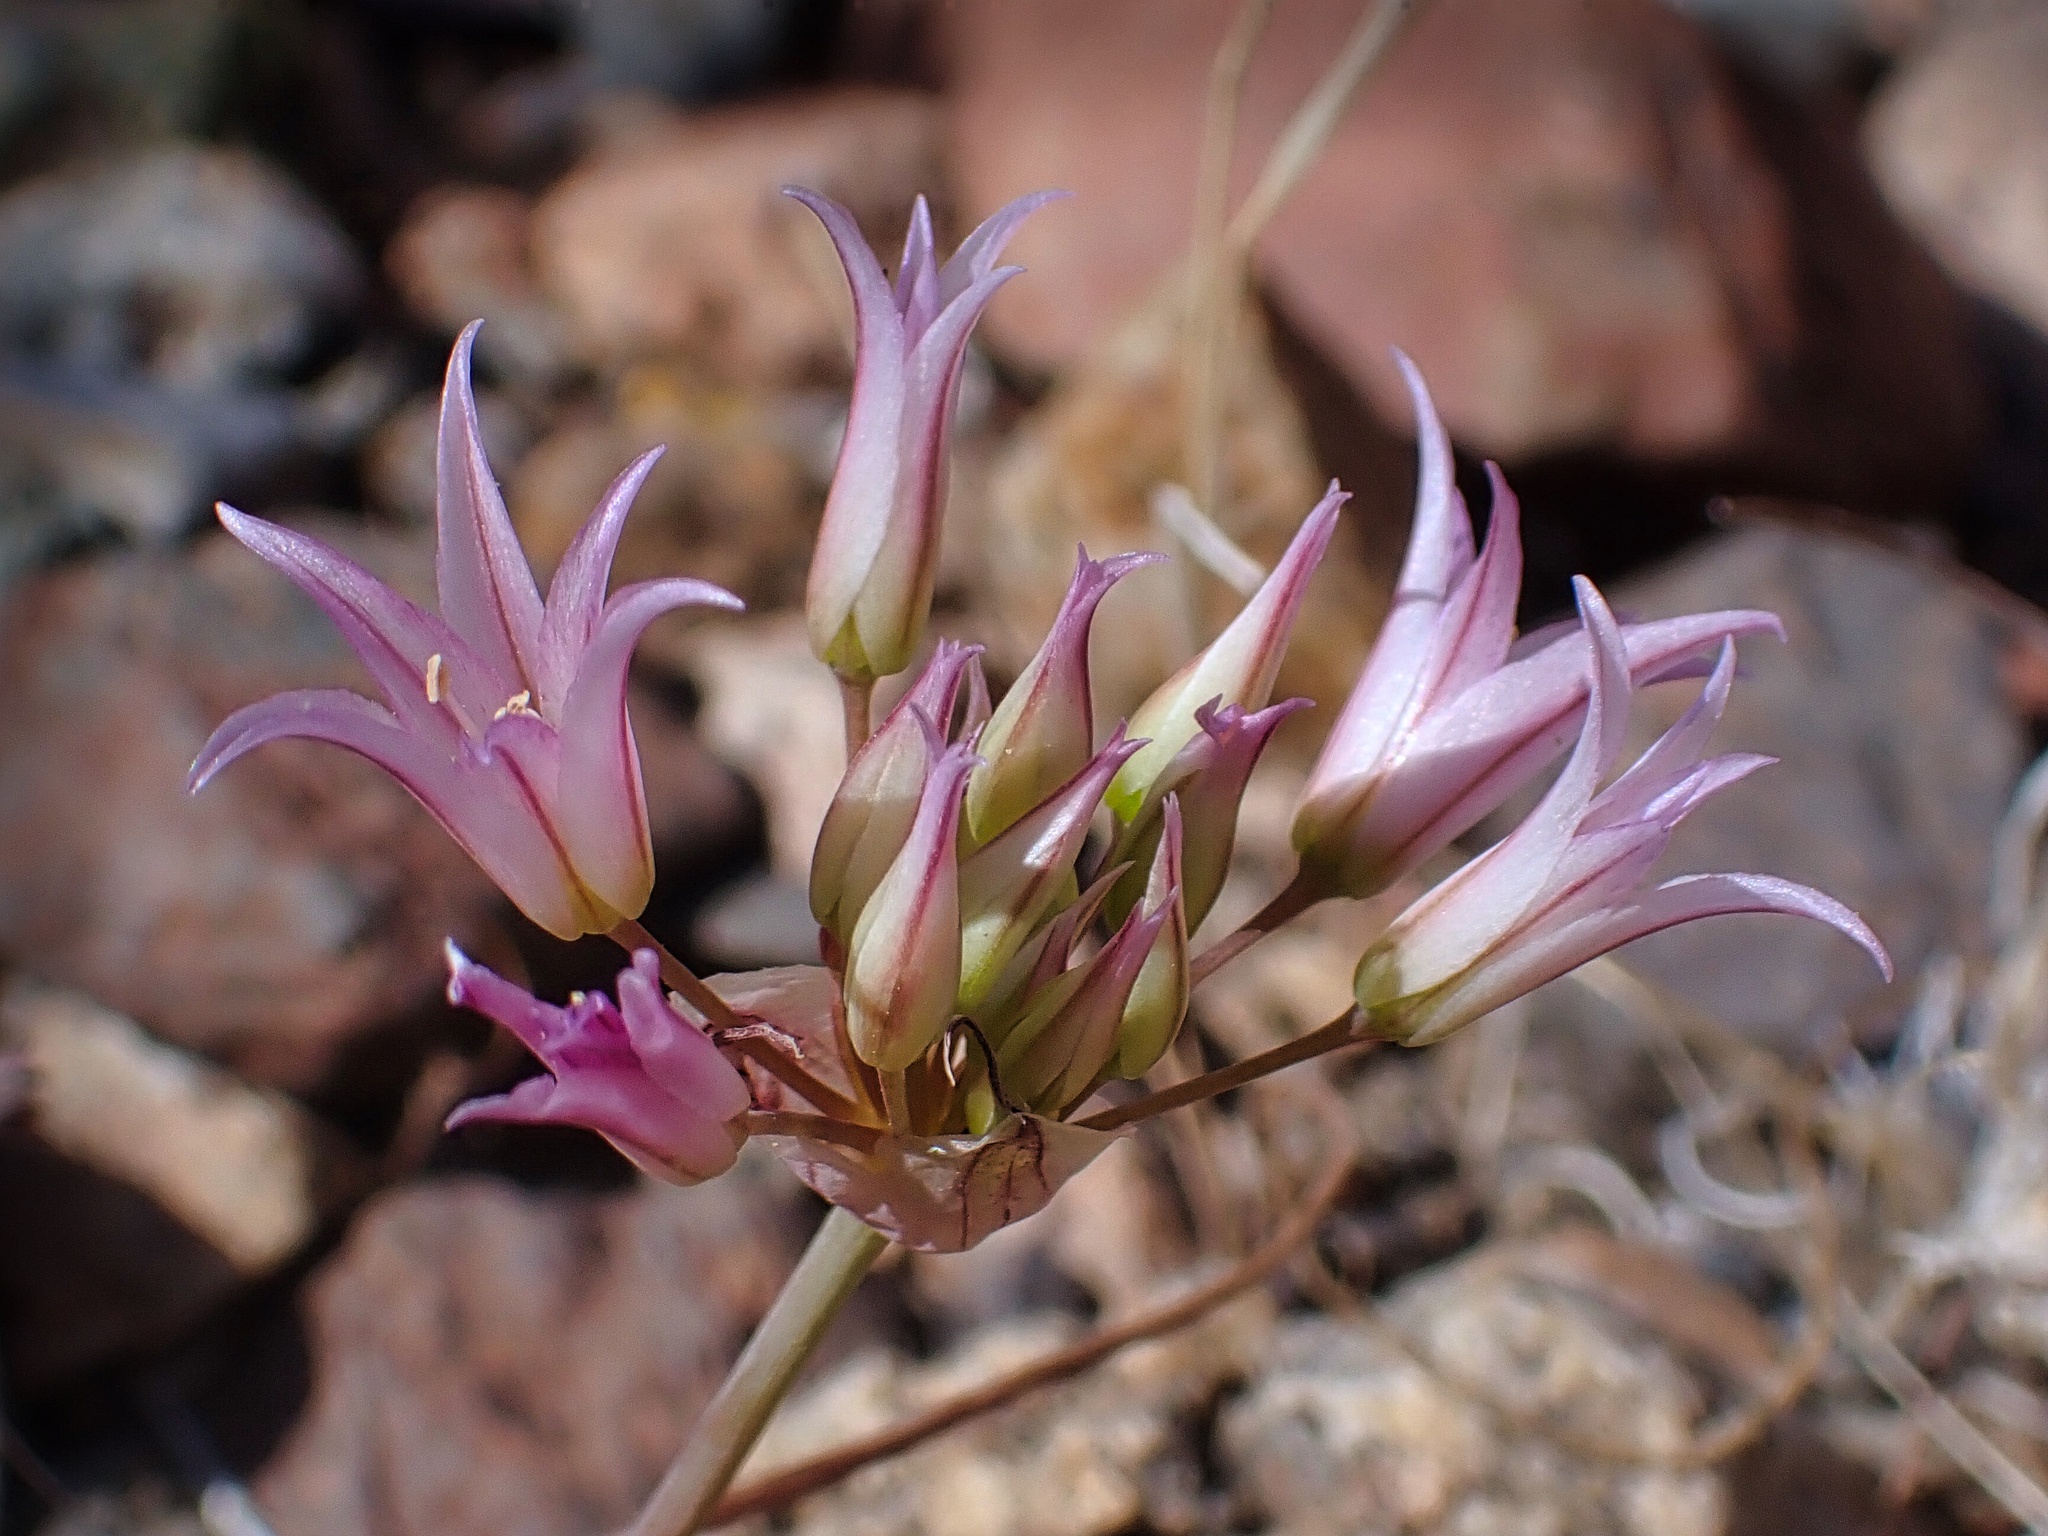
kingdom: Plantae
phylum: Tracheophyta
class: Liliopsida
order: Asparagales
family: Amaryllidaceae
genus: Allium
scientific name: Allium fimbriatum
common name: Fringed onion
